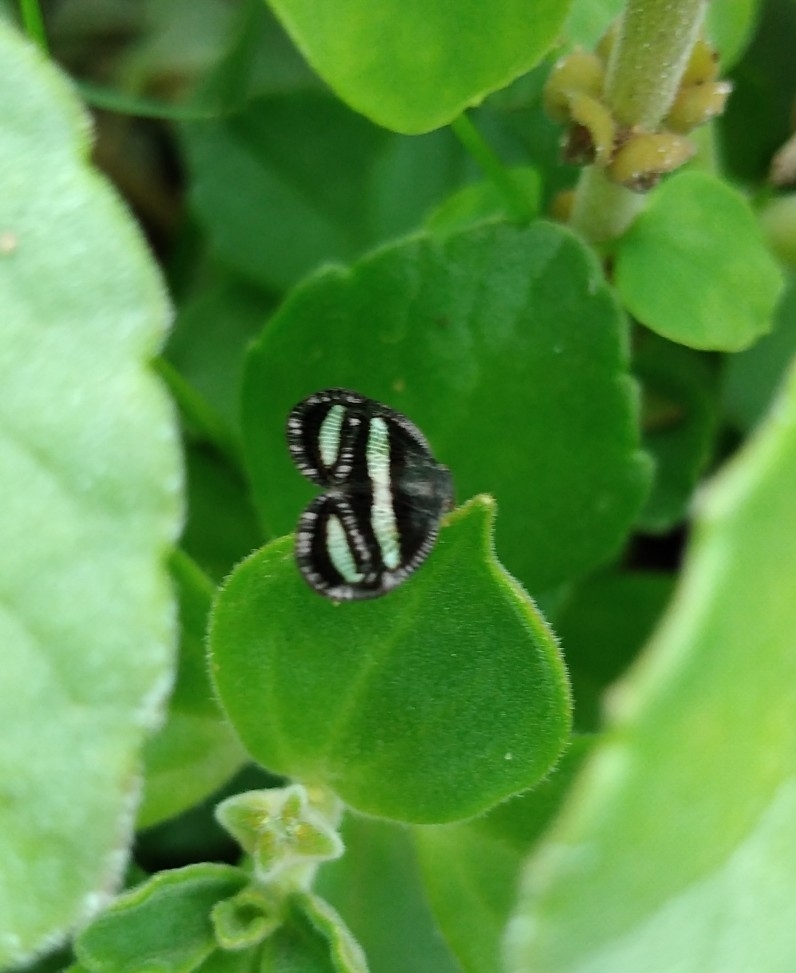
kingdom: Animalia
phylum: Arthropoda
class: Insecta
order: Hemiptera
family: Ricaniidae
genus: Mulvia
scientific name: Mulvia albizona
